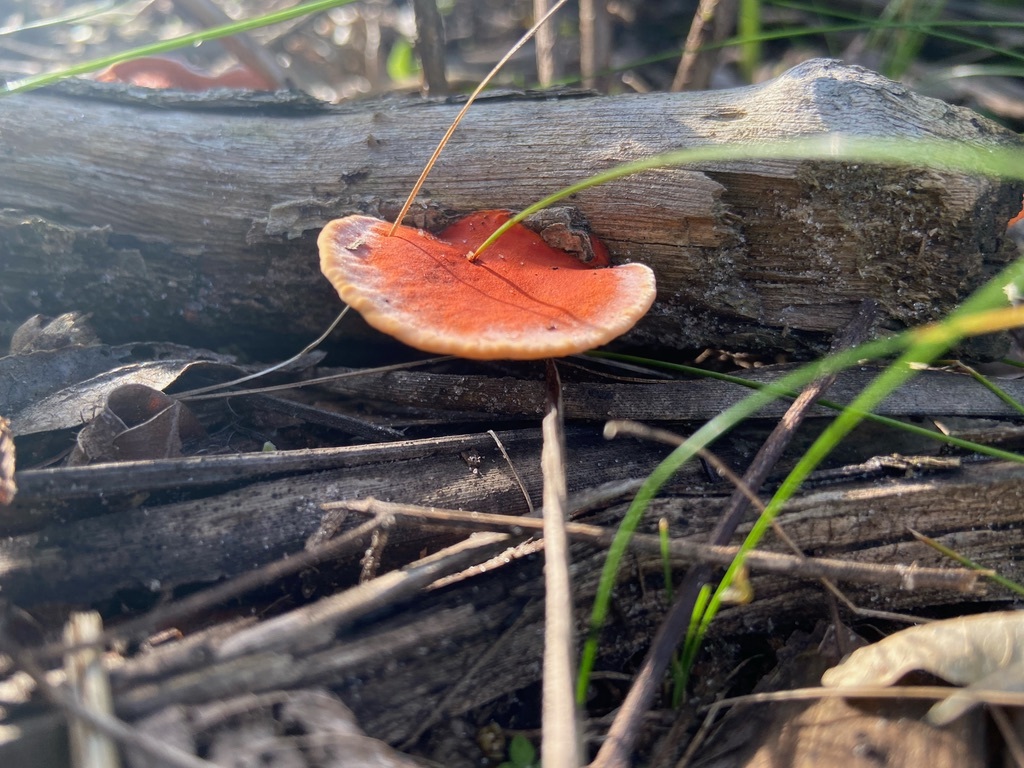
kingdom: Fungi
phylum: Basidiomycota
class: Agaricomycetes
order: Polyporales
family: Polyporaceae
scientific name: Polyporaceae
